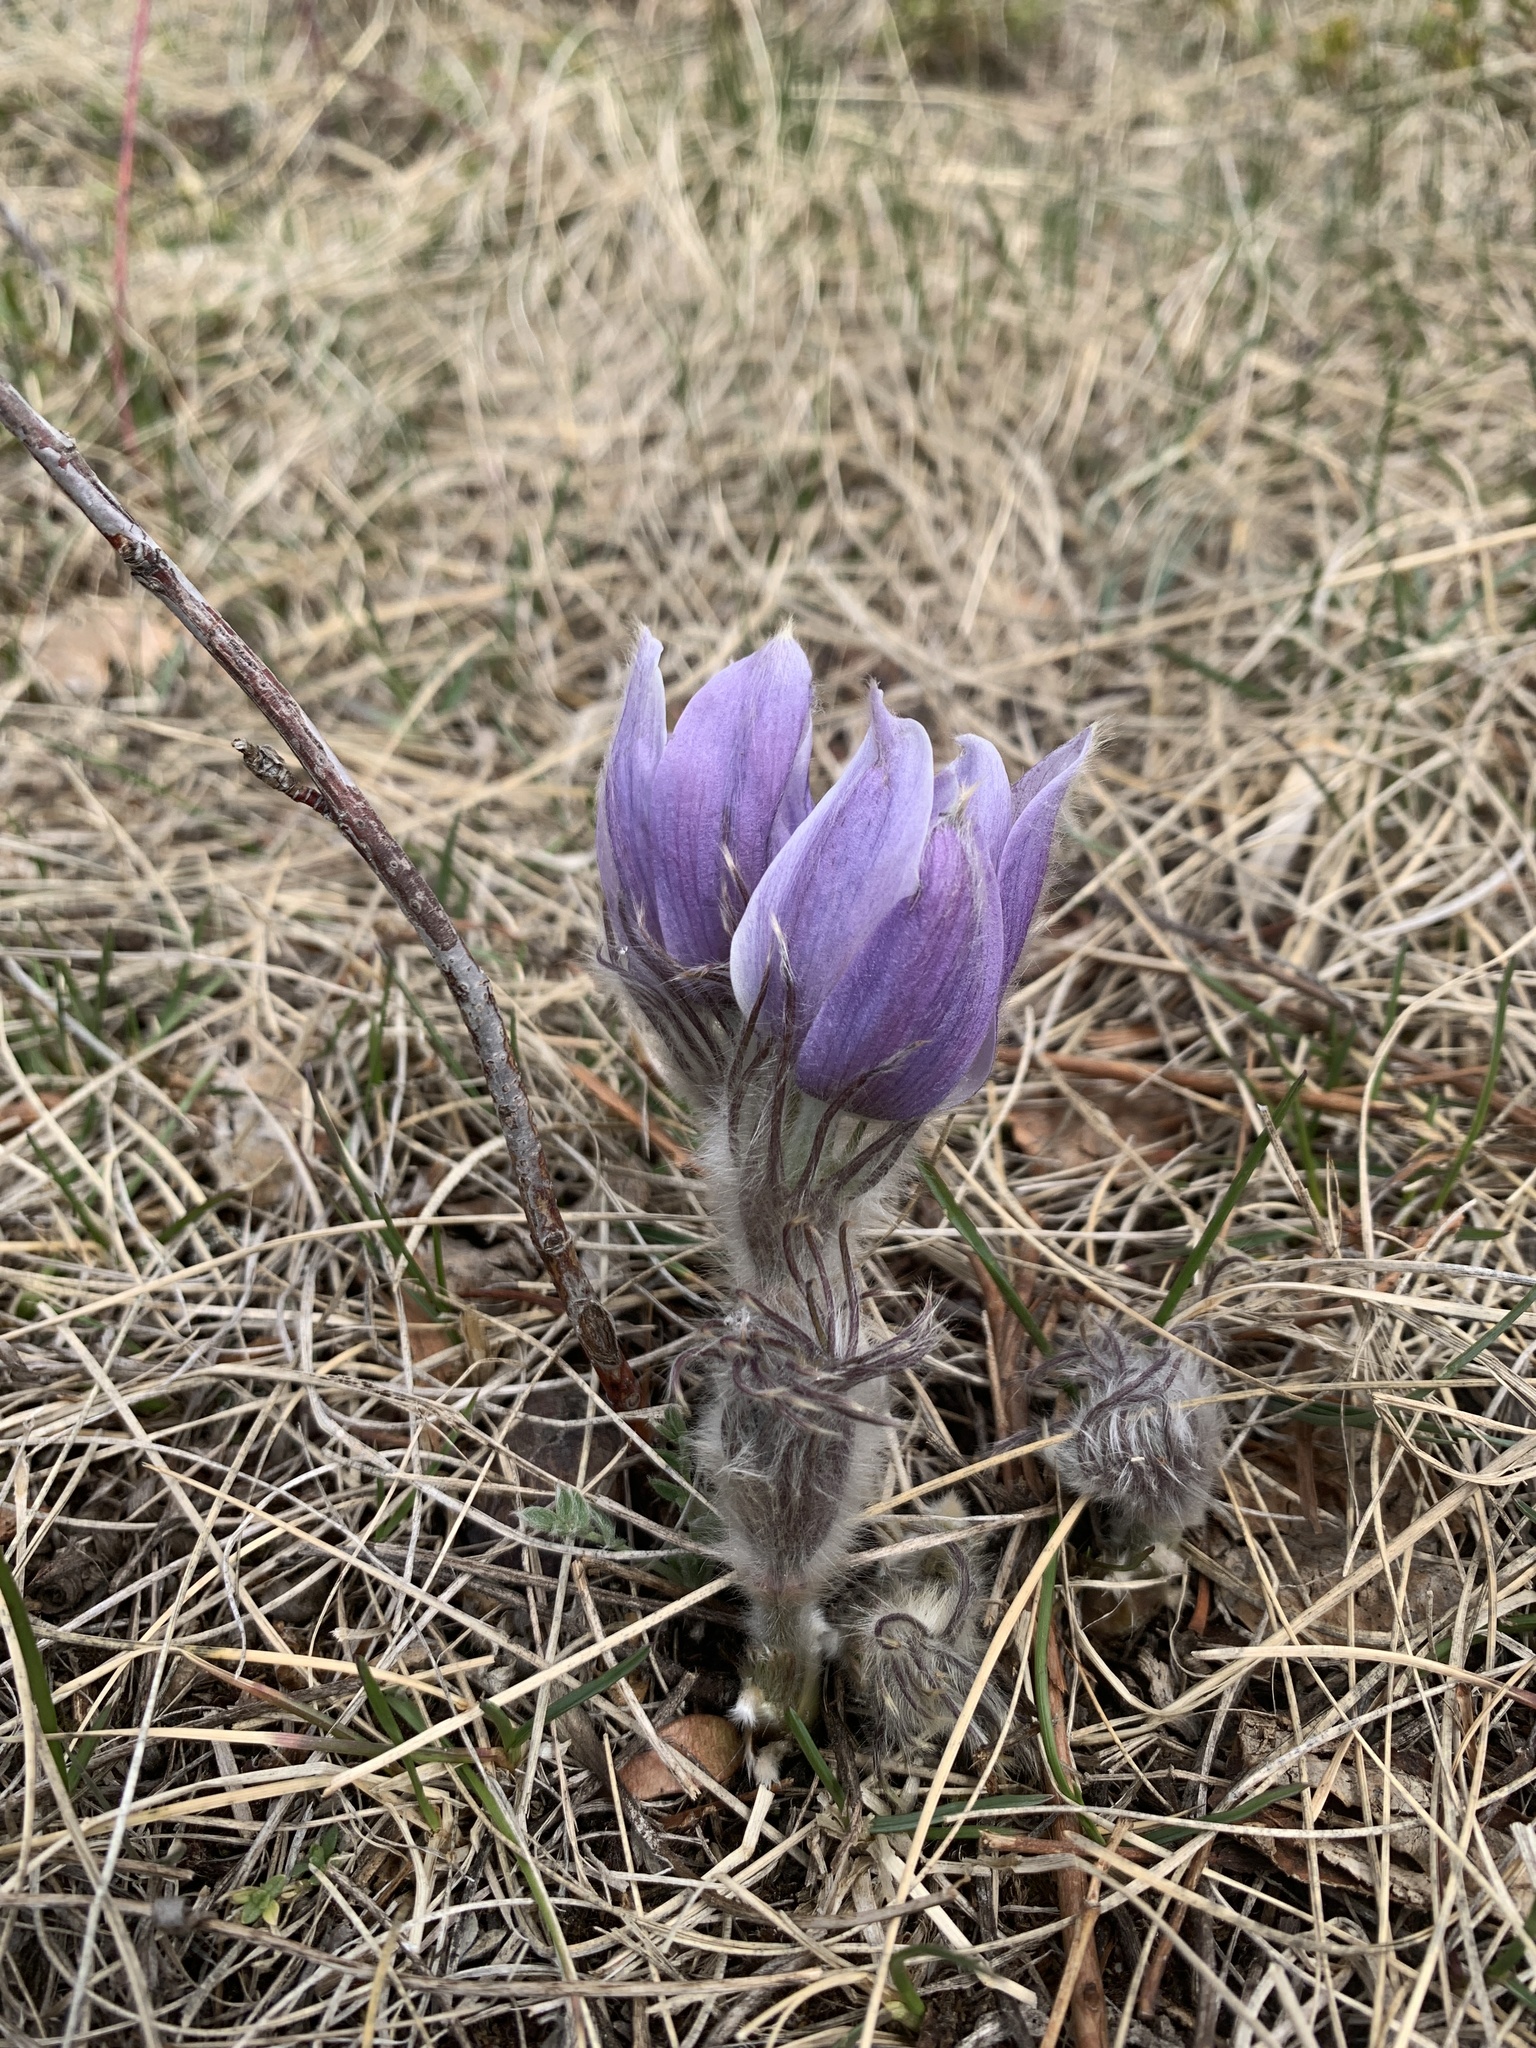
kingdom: Plantae
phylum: Tracheophyta
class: Magnoliopsida
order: Ranunculales
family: Ranunculaceae
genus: Pulsatilla
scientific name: Pulsatilla nuttalliana
